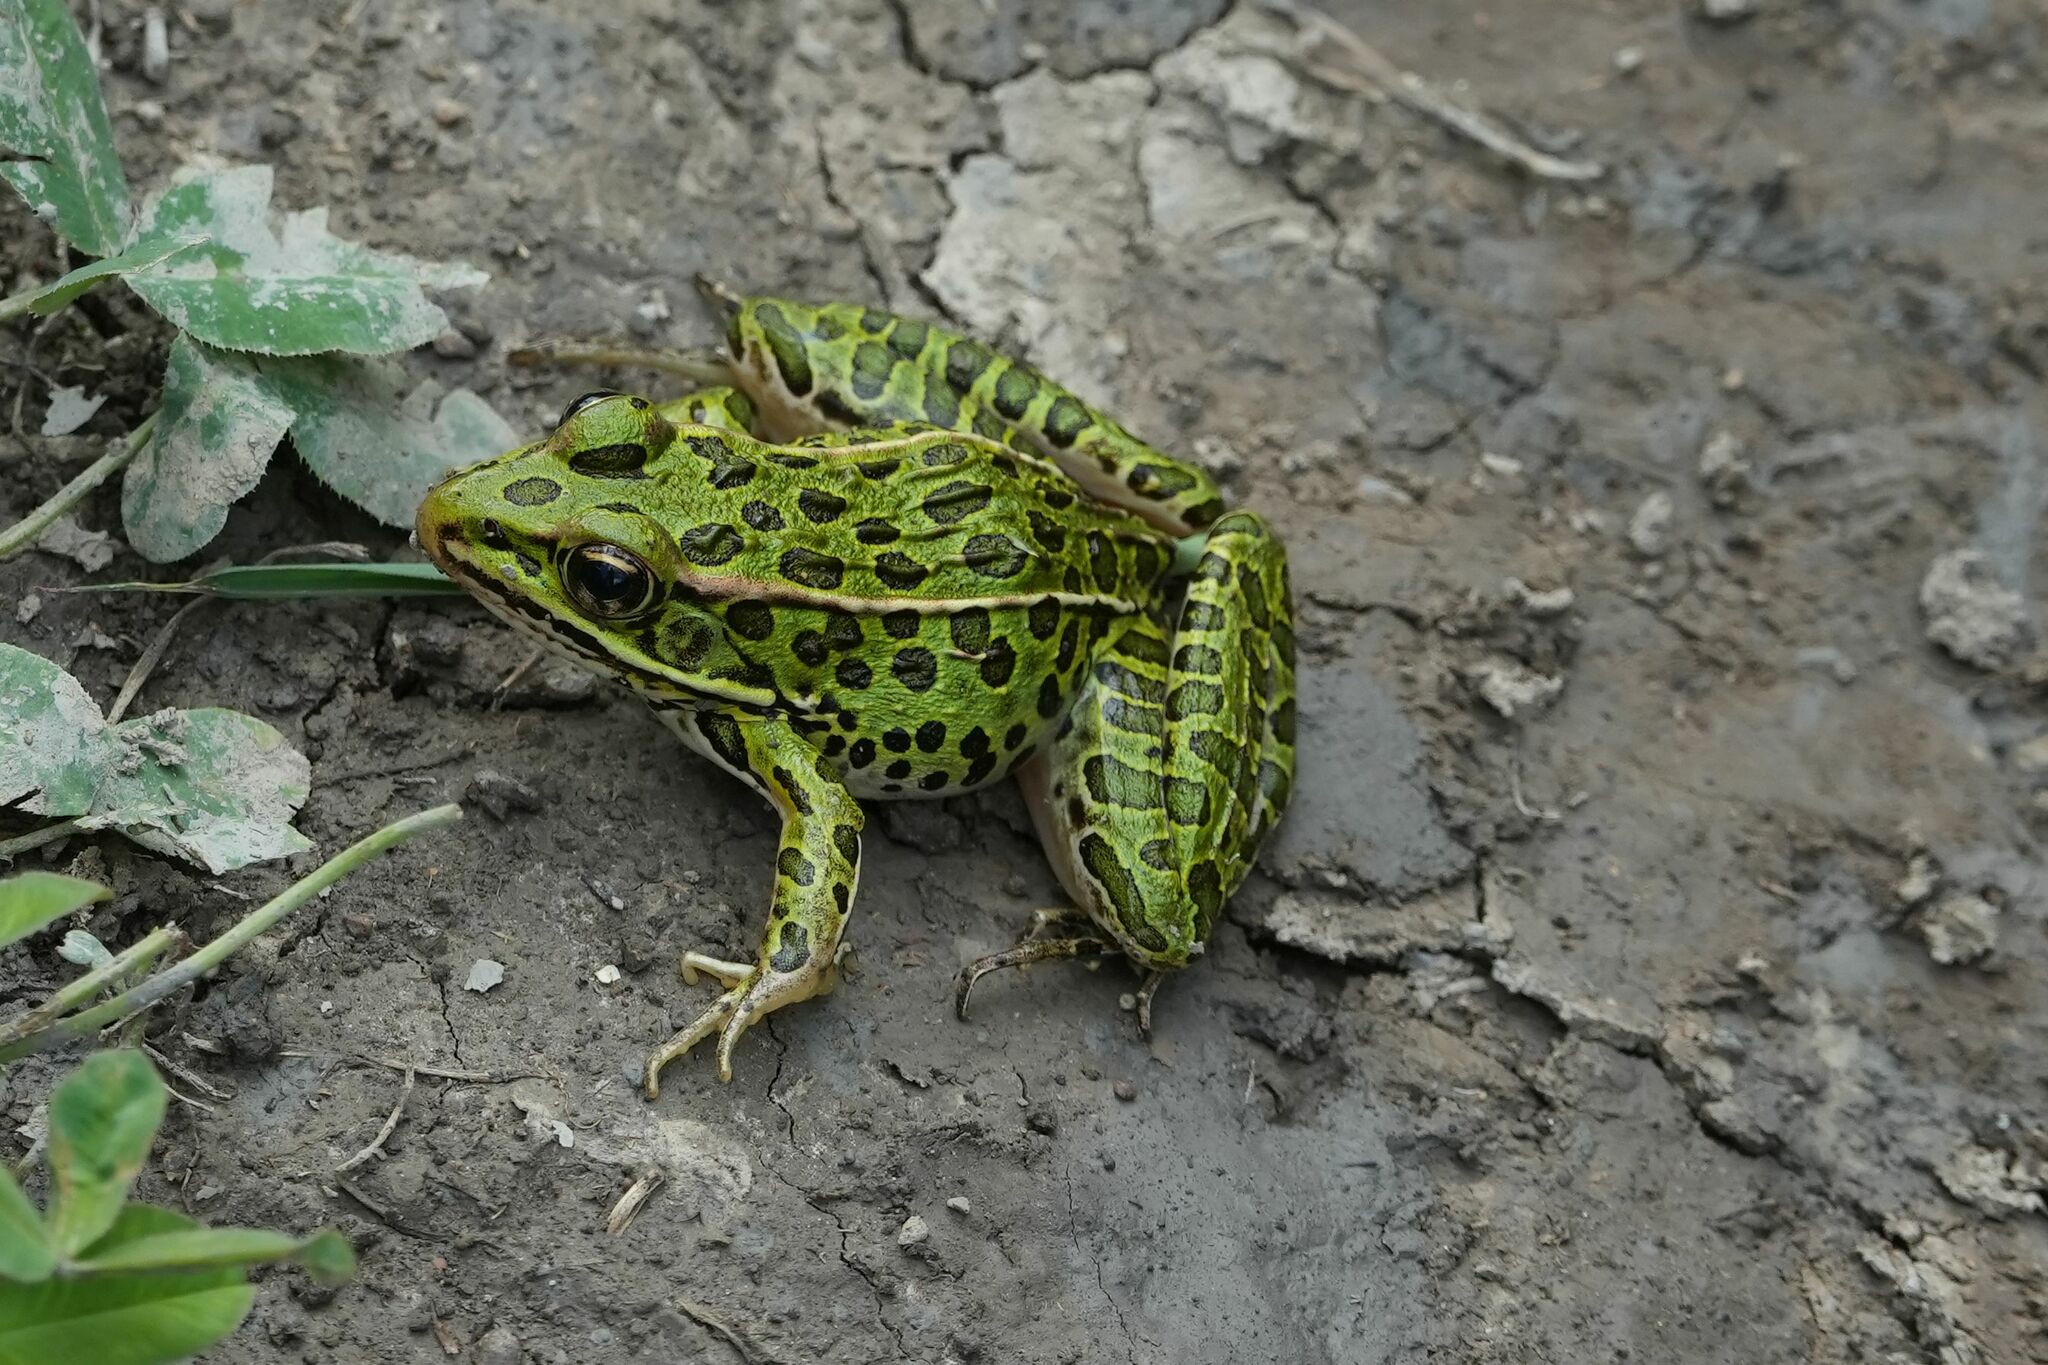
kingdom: Animalia
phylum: Chordata
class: Amphibia
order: Anura
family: Ranidae
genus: Lithobates
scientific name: Lithobates pipiens
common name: Northern leopard frog
